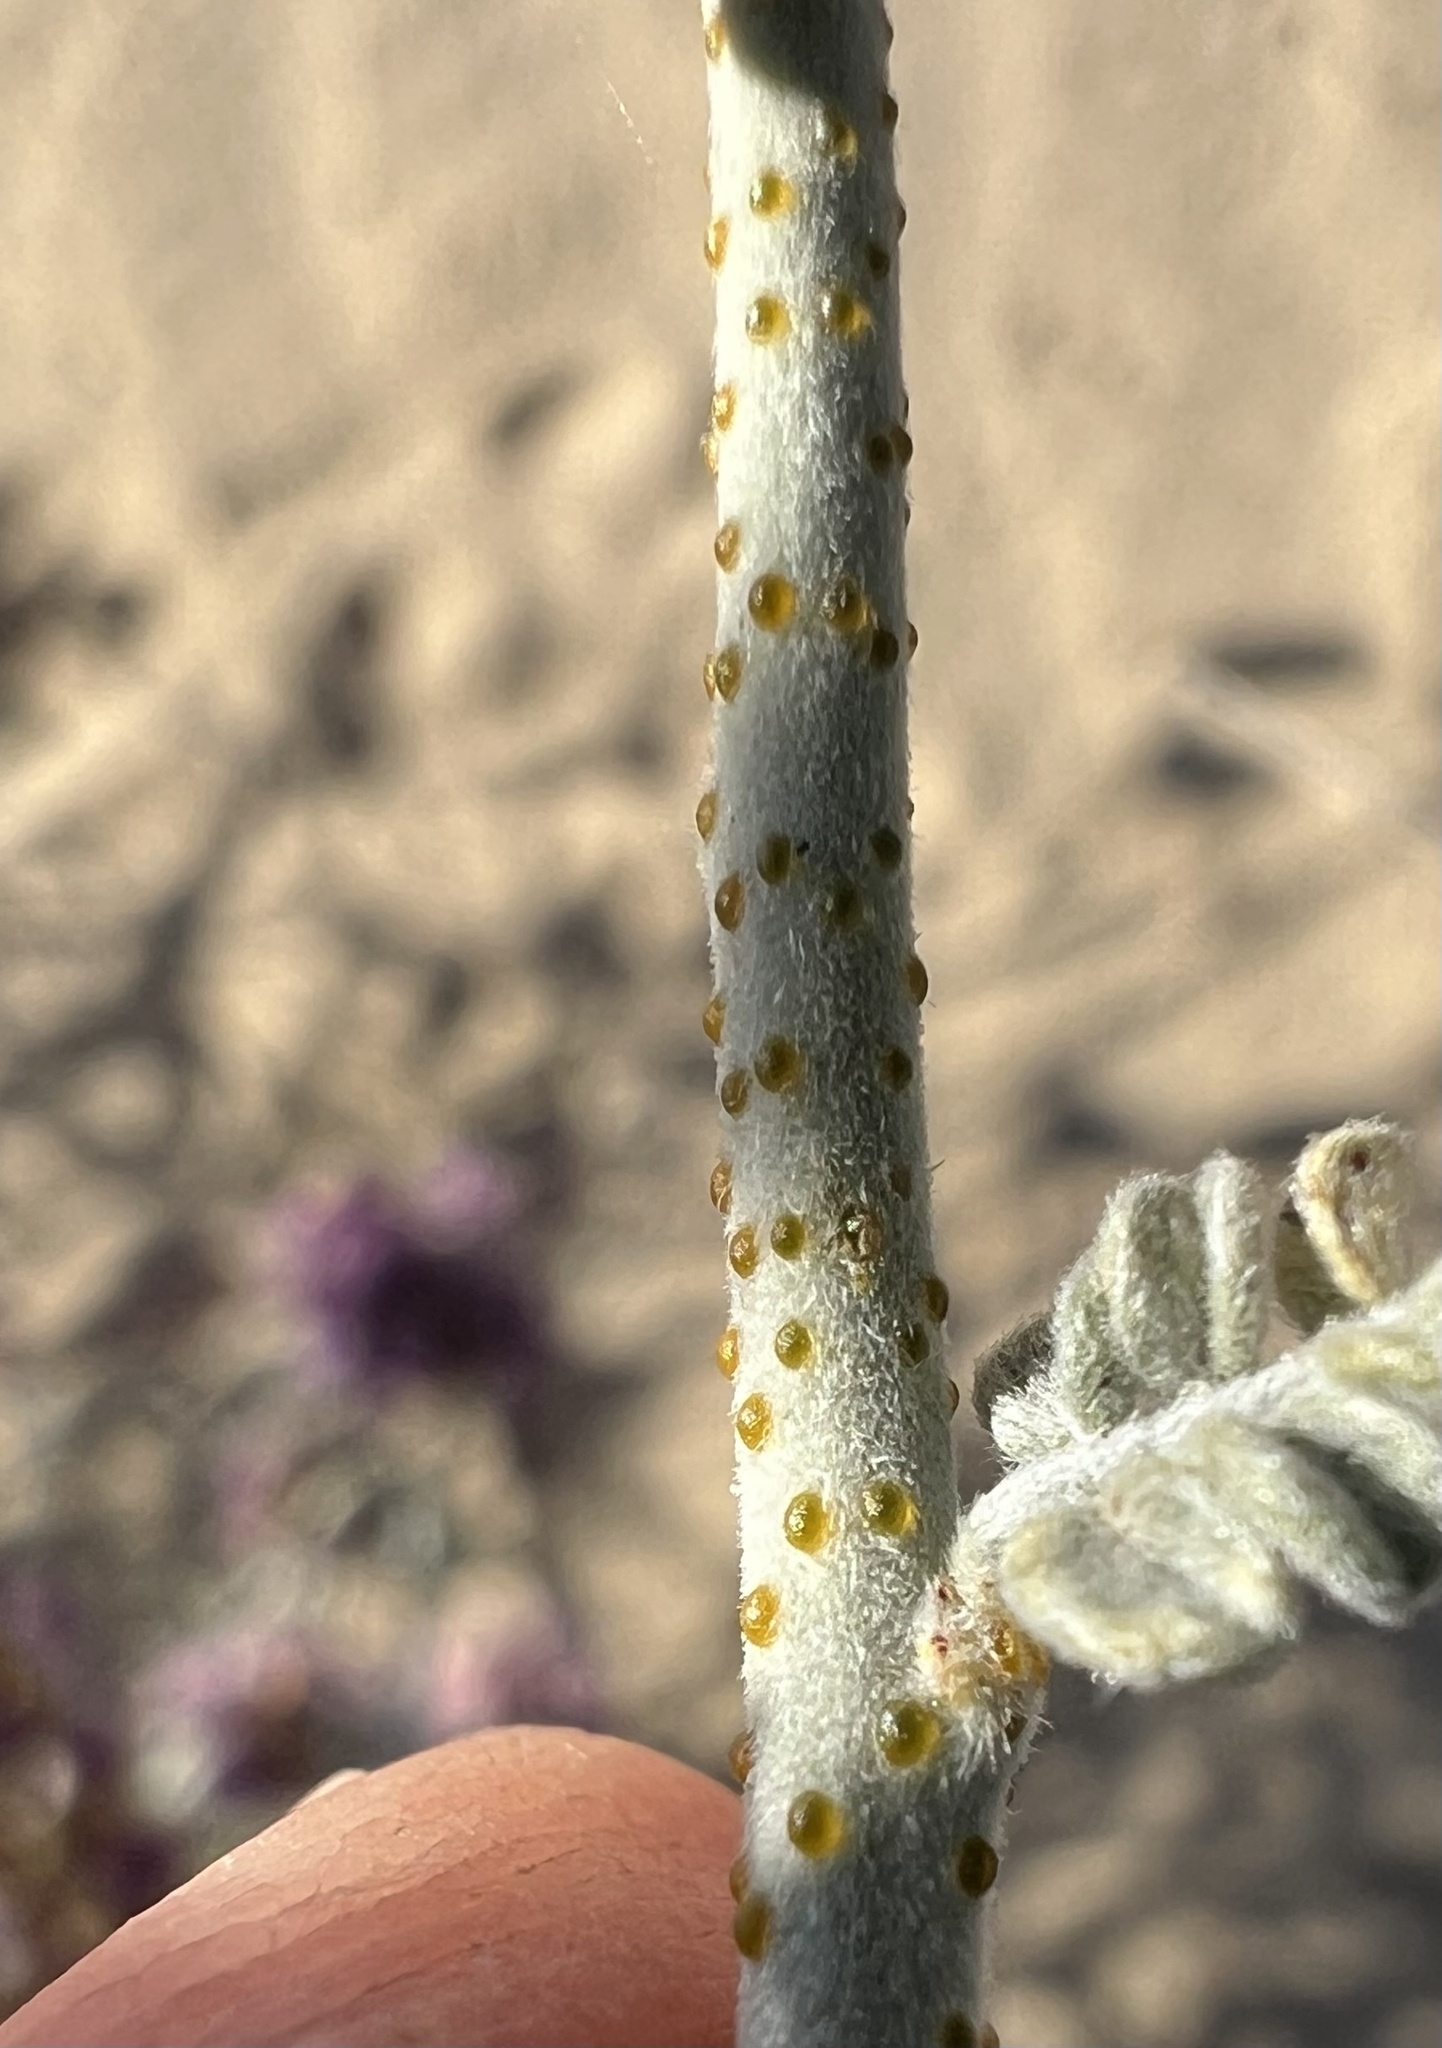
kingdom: Plantae
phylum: Tracheophyta
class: Magnoliopsida
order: Fabales
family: Fabaceae
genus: Psorothamnus
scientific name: Psorothamnus polydenius
